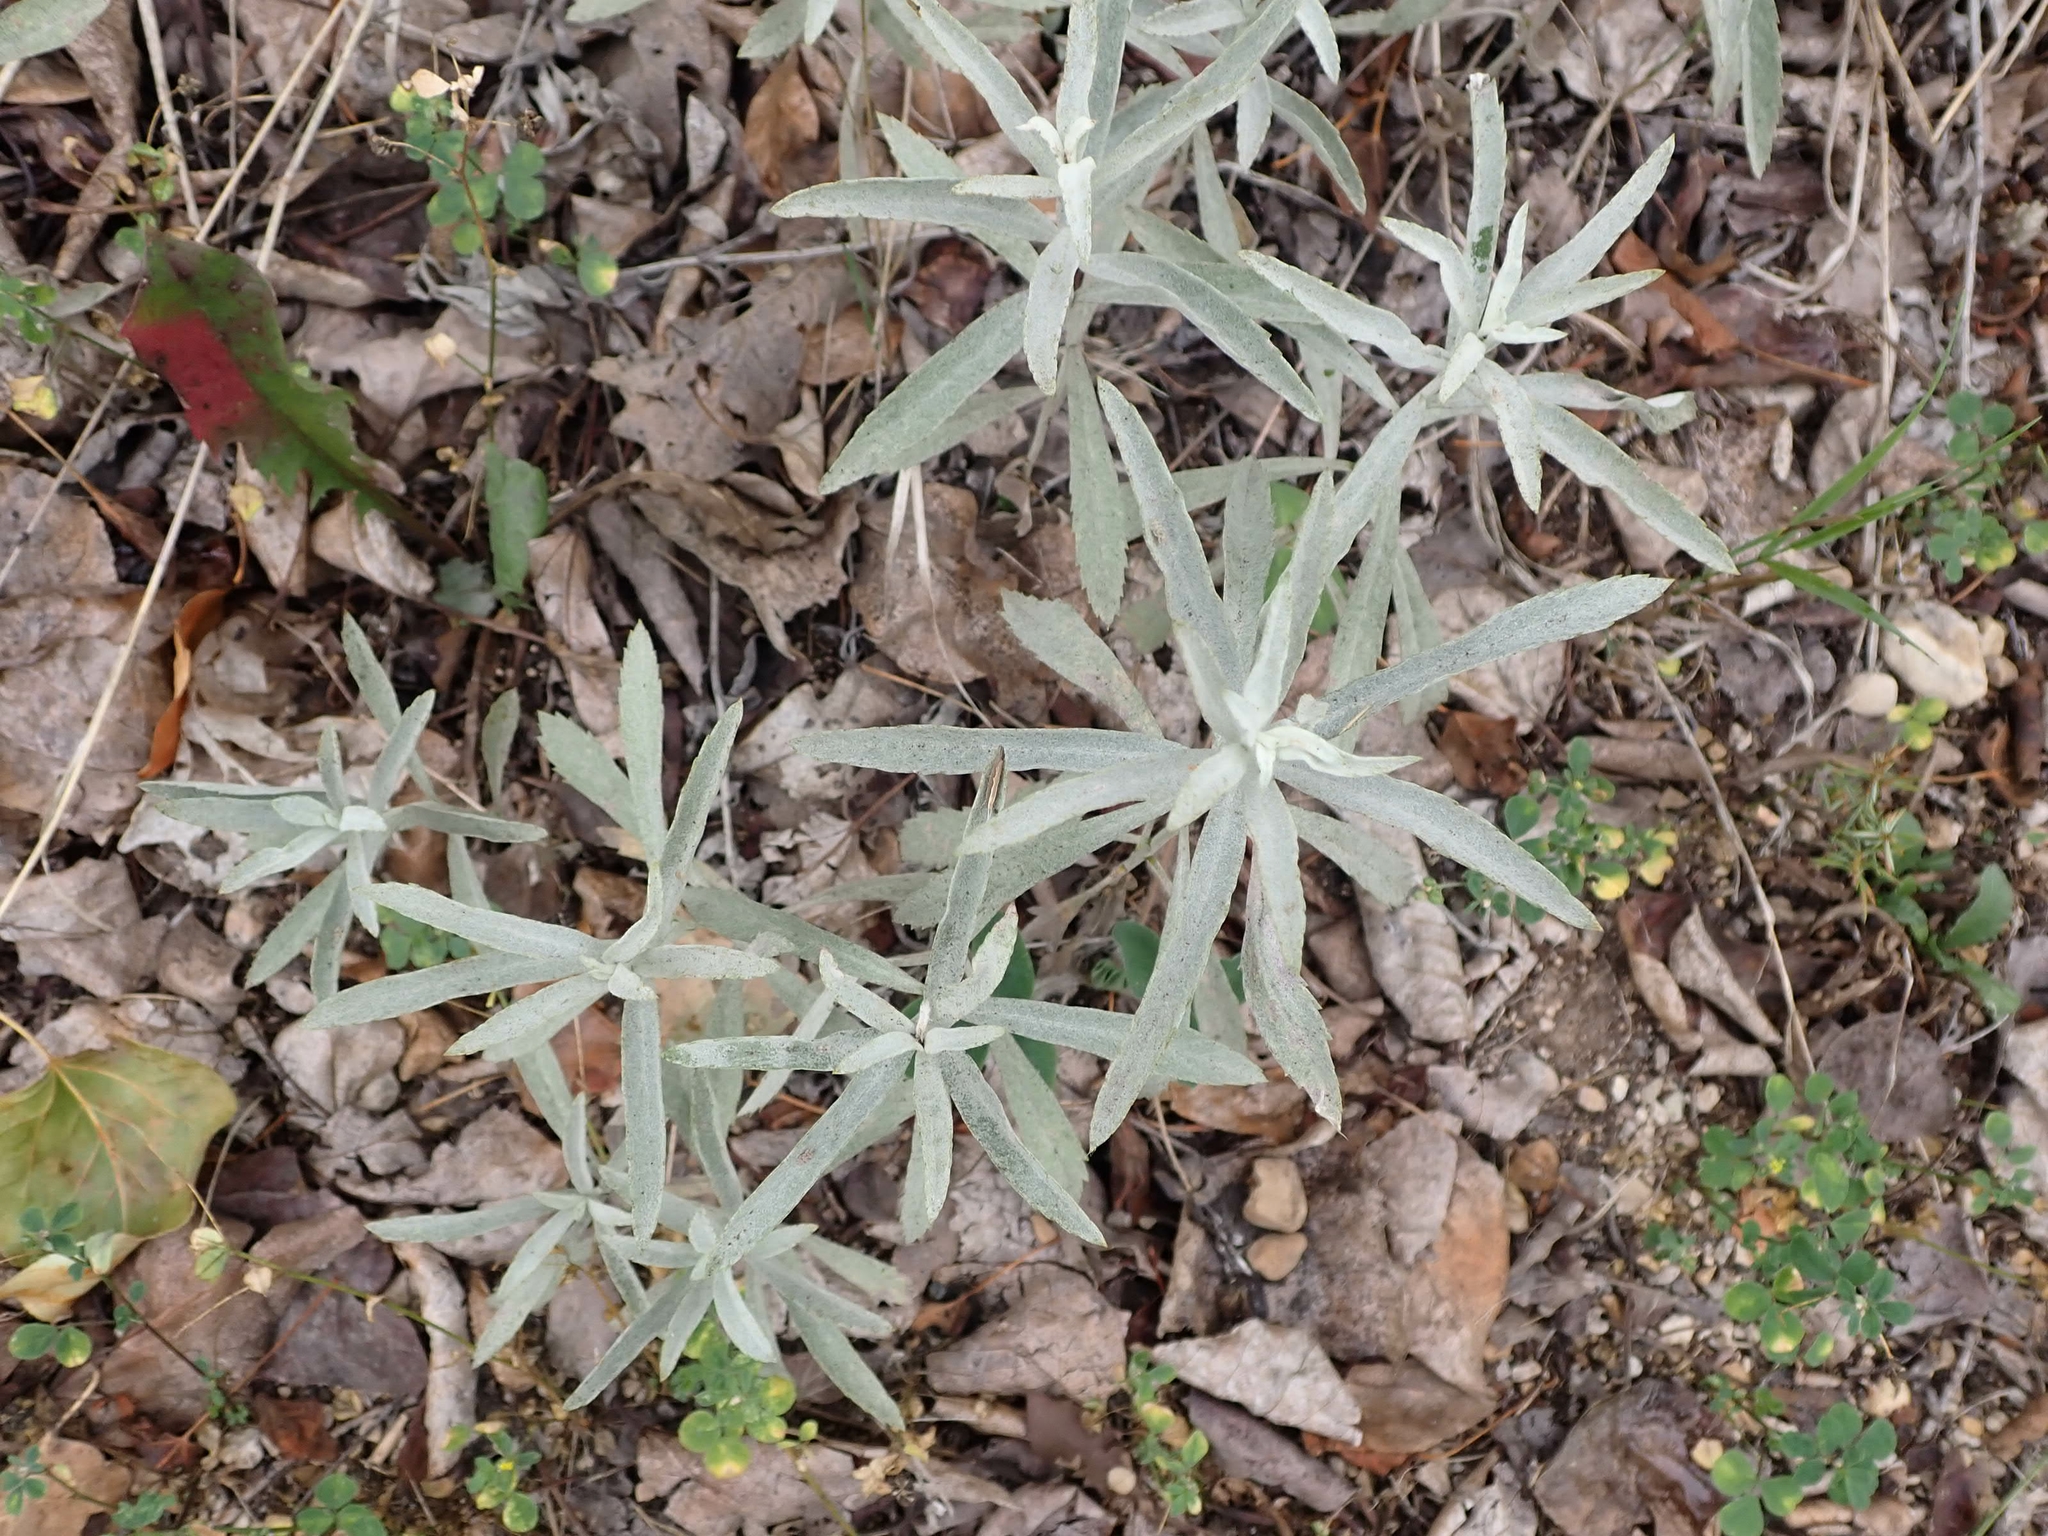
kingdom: Plantae
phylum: Tracheophyta
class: Magnoliopsida
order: Asterales
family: Asteraceae
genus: Artemisia
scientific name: Artemisia ludoviciana
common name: Western mugwort
